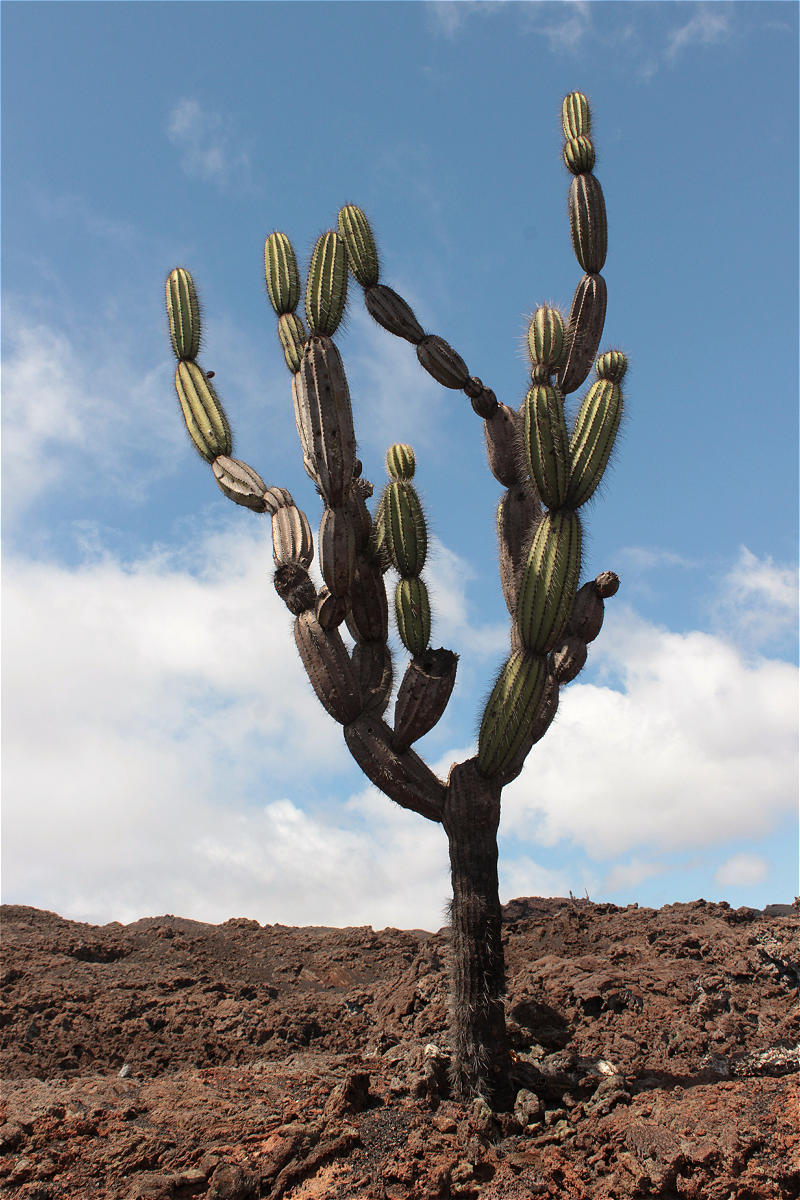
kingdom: Plantae
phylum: Tracheophyta
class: Magnoliopsida
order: Caryophyllales
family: Cactaceae
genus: Jasminocereus
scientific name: Jasminocereus thouarsii
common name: Candelabra cactus
